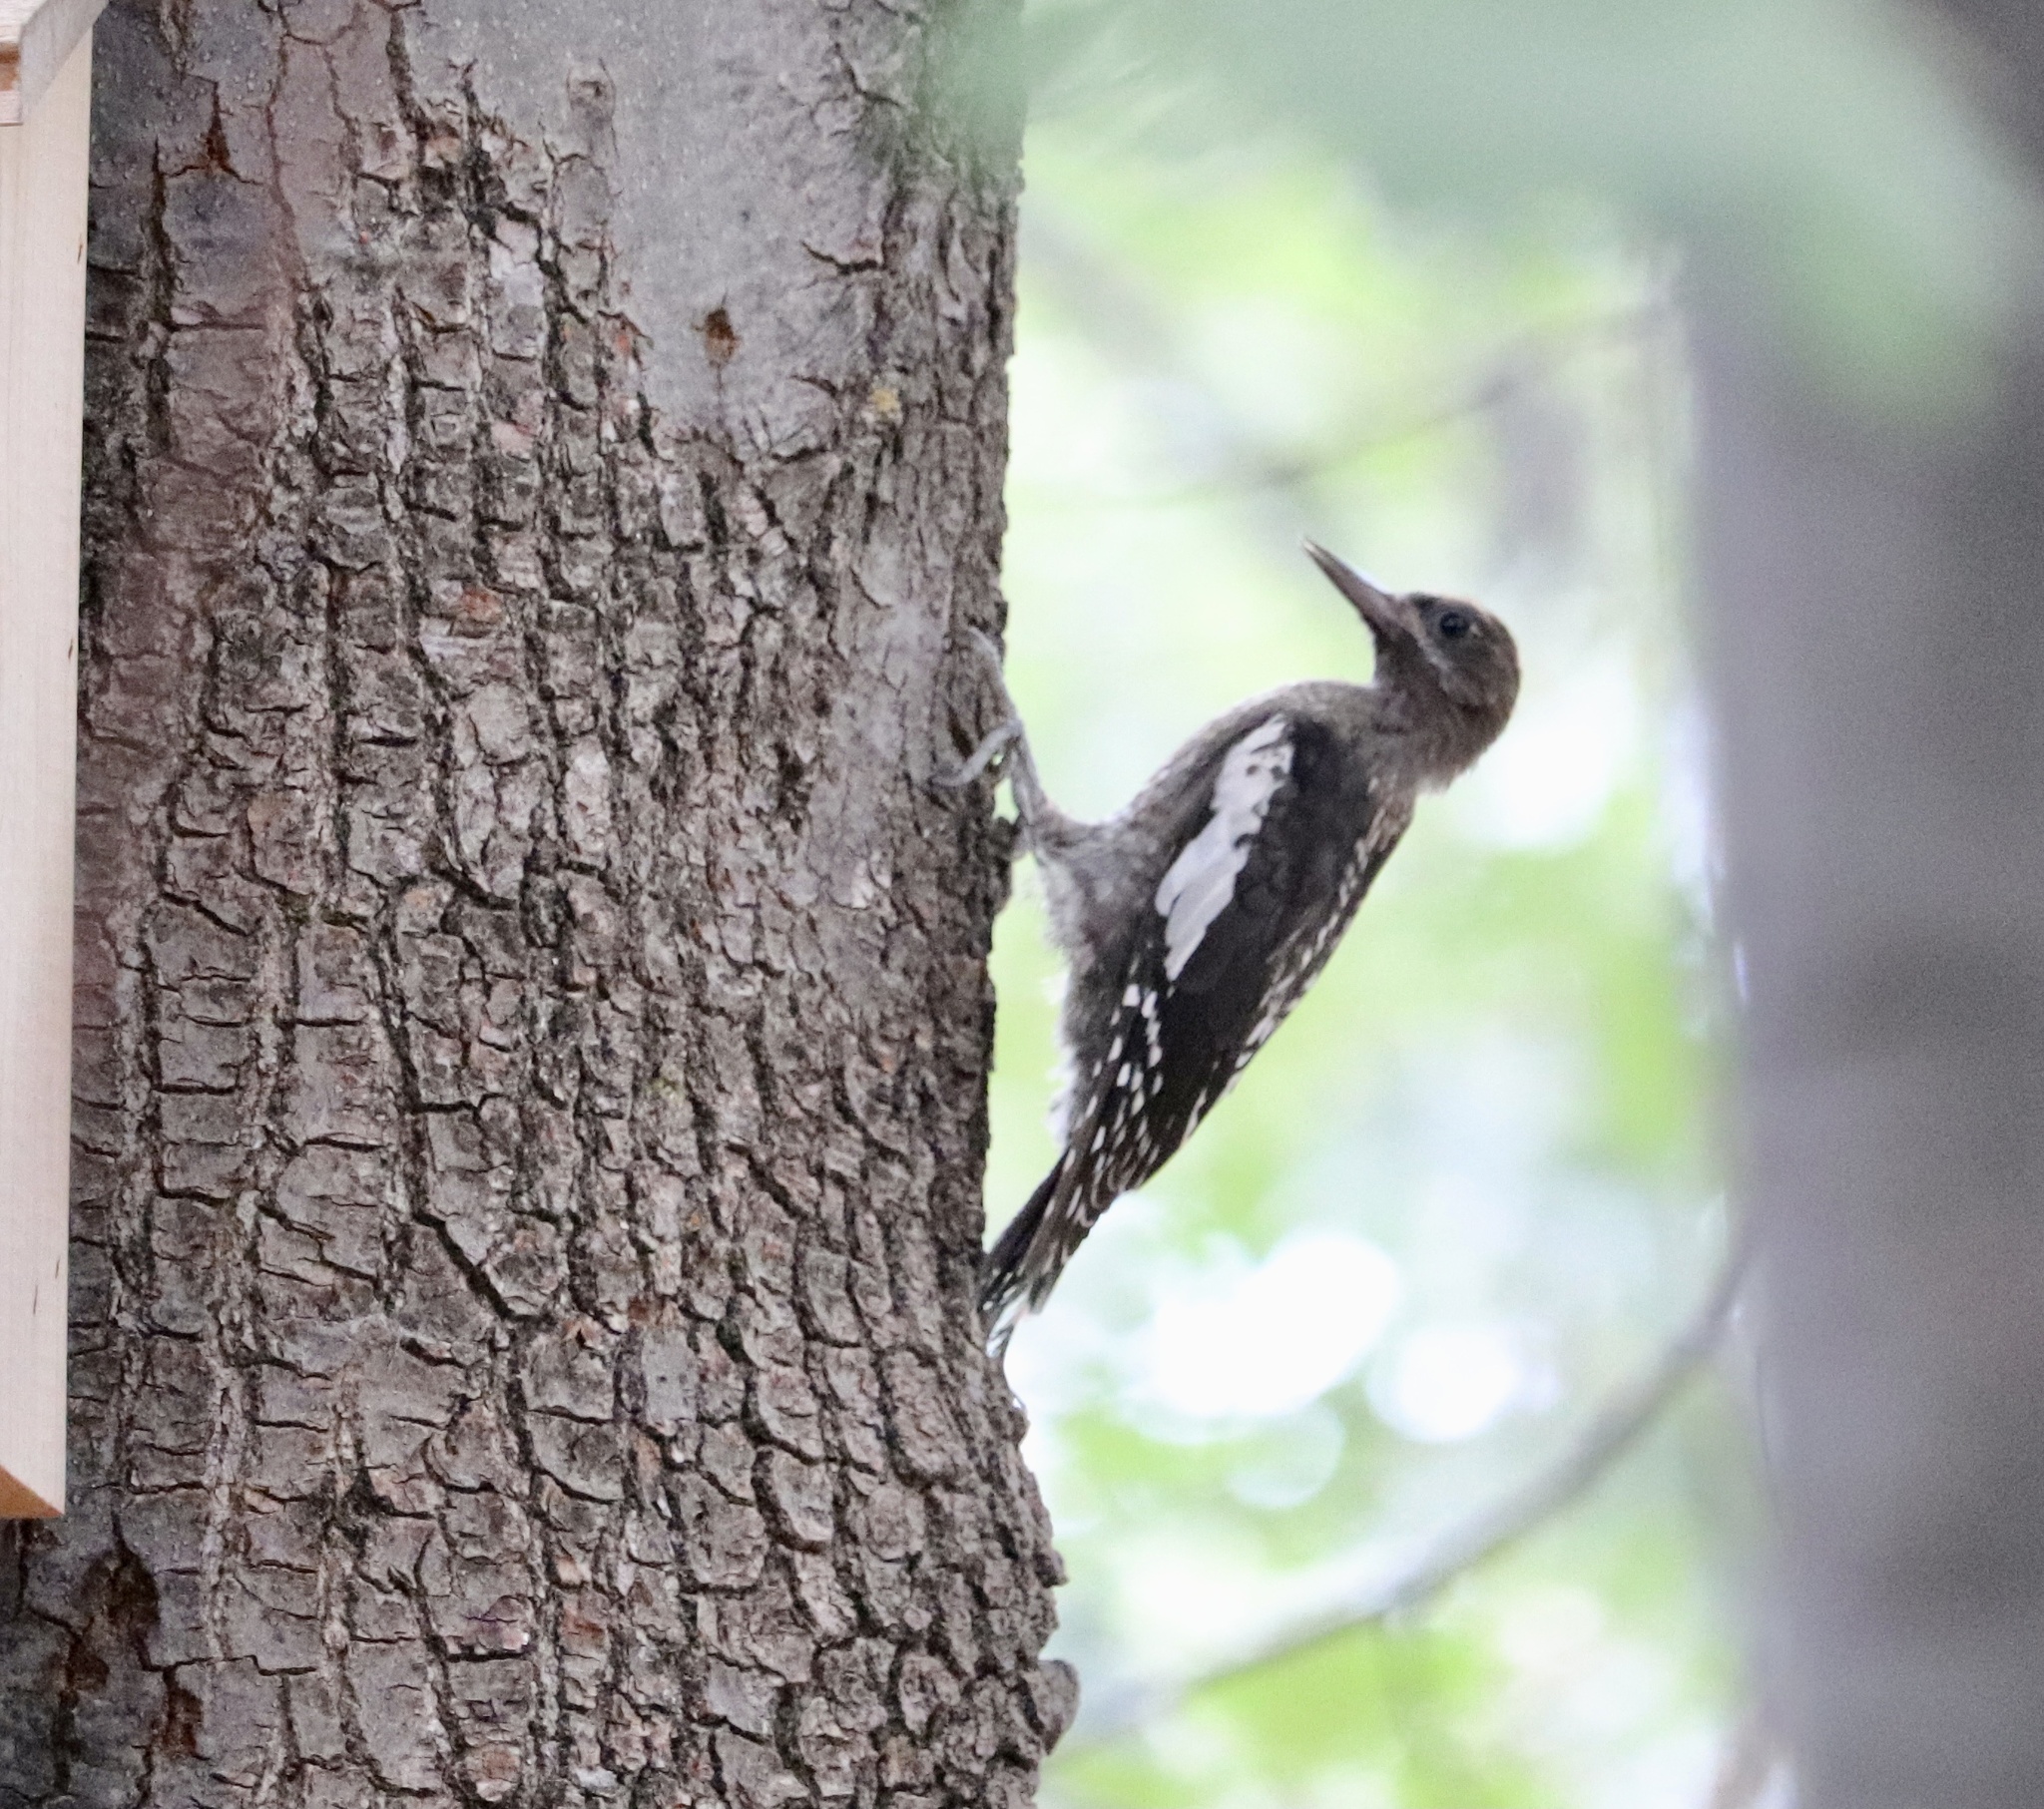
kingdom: Animalia
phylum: Chordata
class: Aves
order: Piciformes
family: Picidae
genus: Sphyrapicus
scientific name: Sphyrapicus ruber
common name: Red-breasted sapsucker
